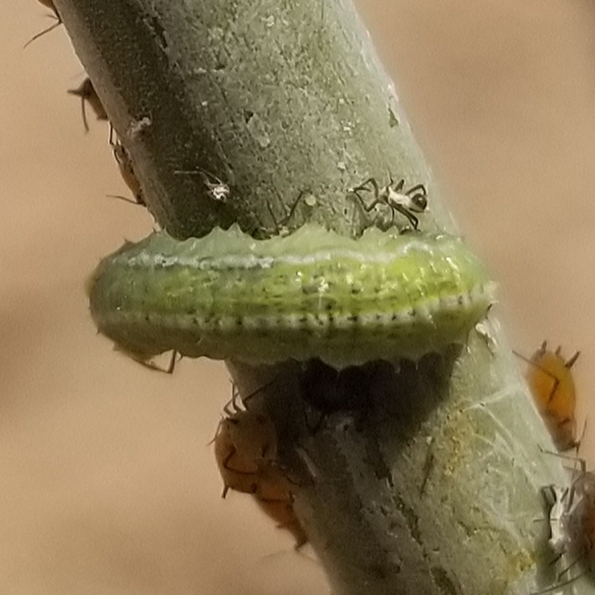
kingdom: Animalia
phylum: Arthropoda
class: Insecta
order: Diptera
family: Syrphidae
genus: Scaeva
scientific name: Scaeva affinis
